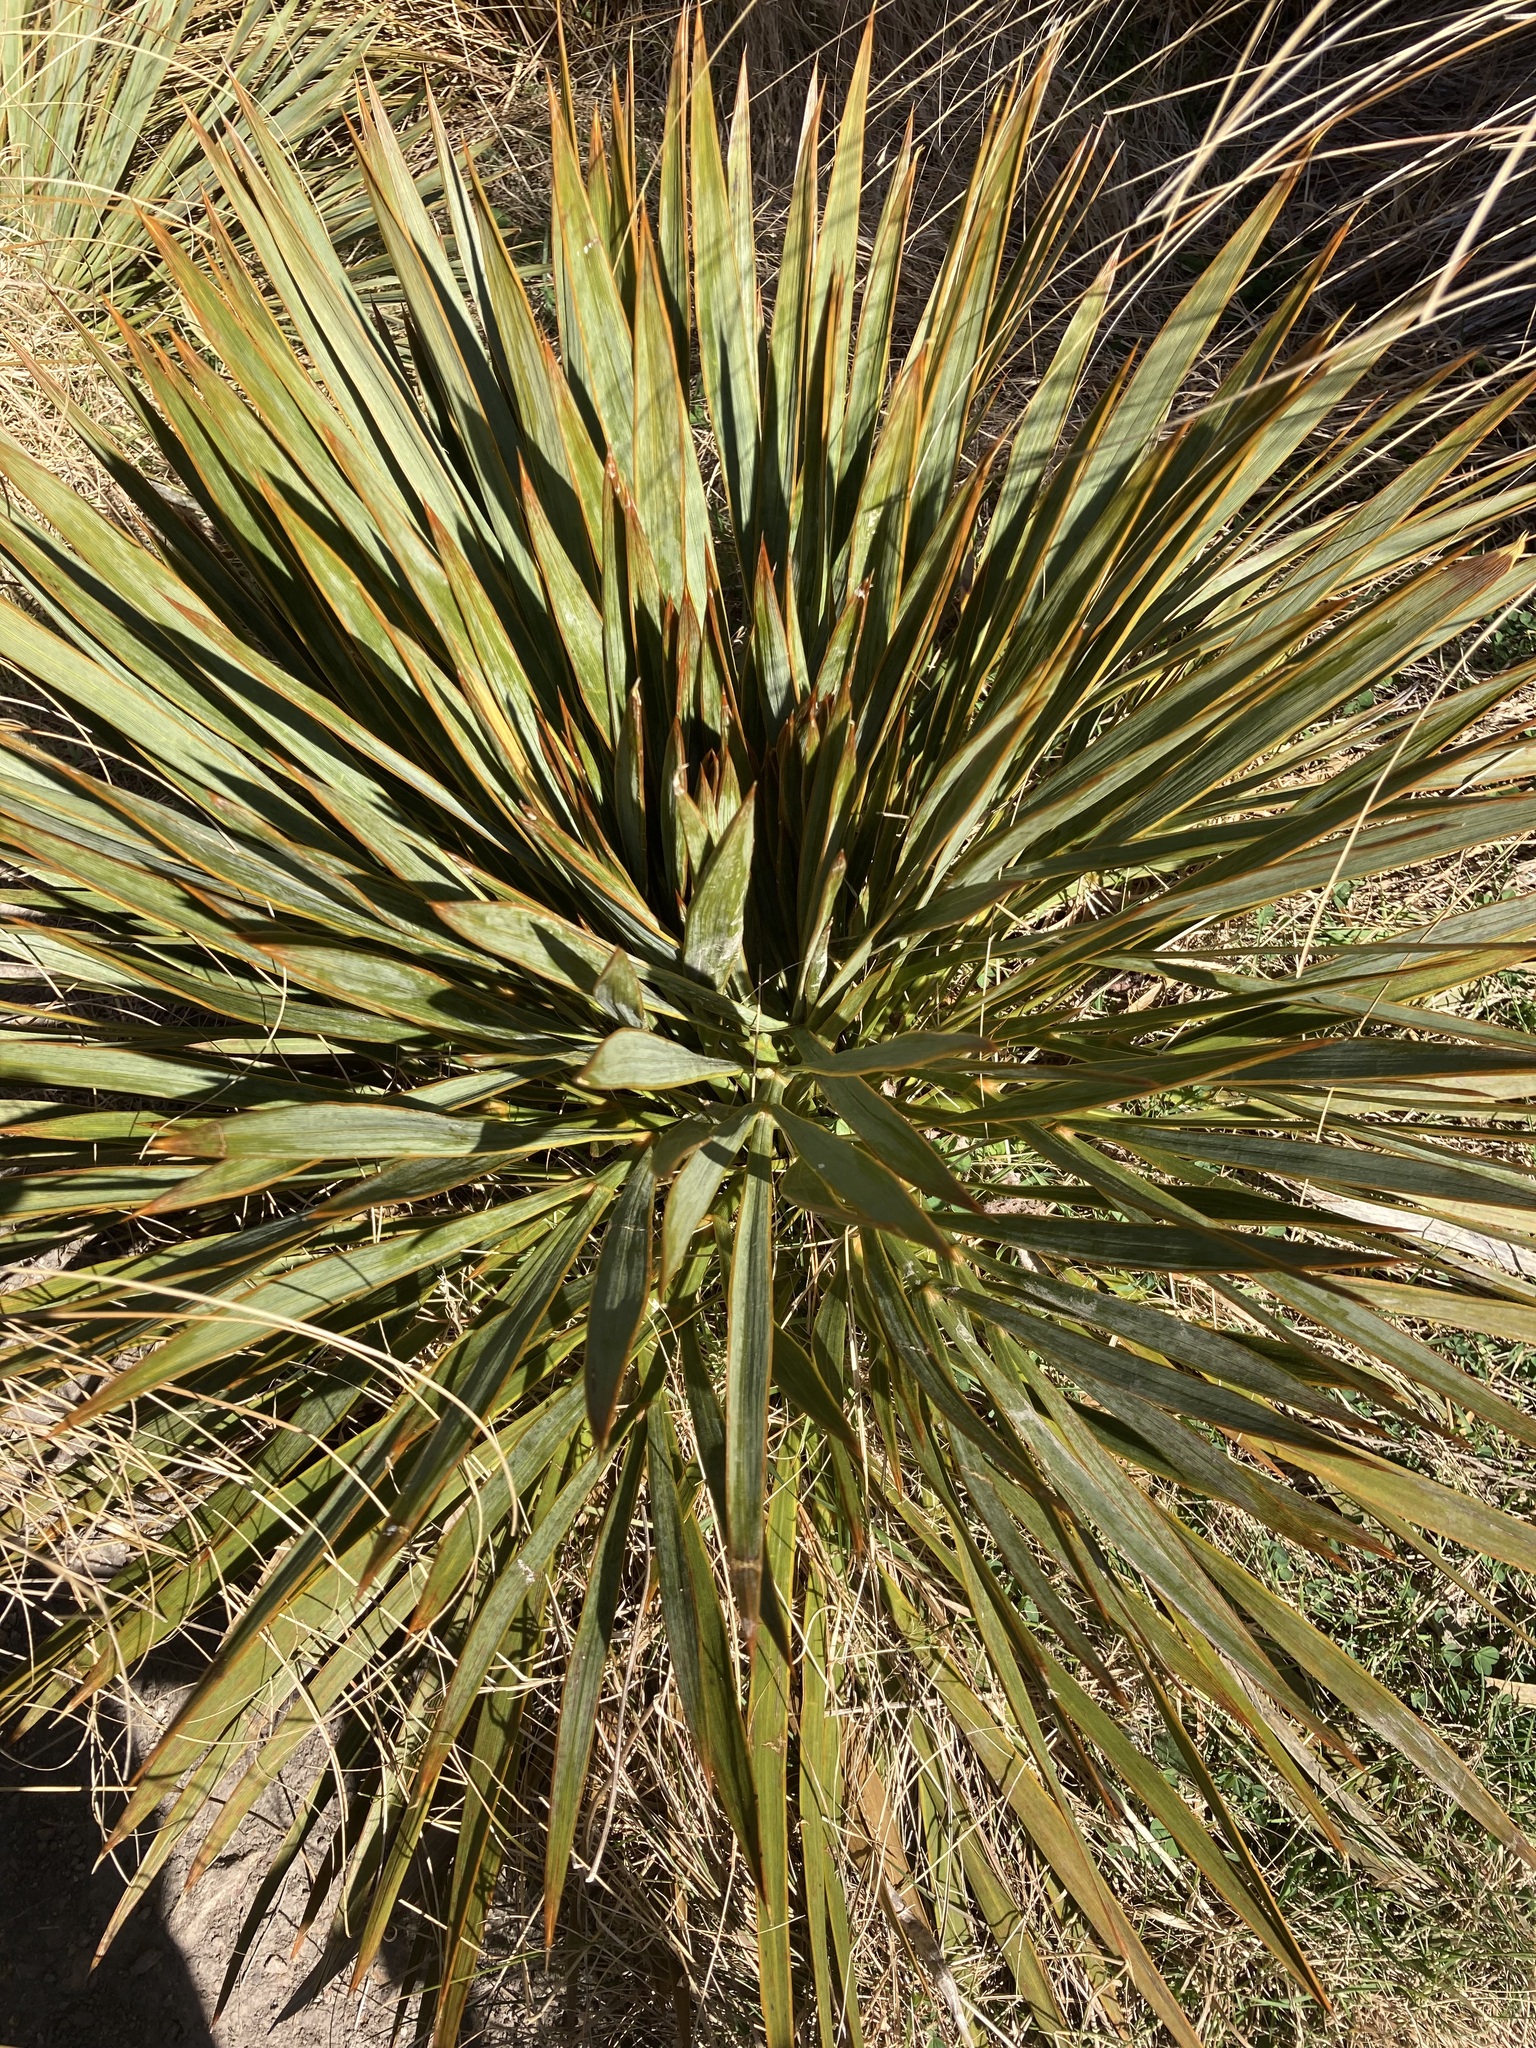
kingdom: Plantae
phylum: Tracheophyta
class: Magnoliopsida
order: Apiales
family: Apiaceae
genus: Aciphylla
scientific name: Aciphylla aurea
